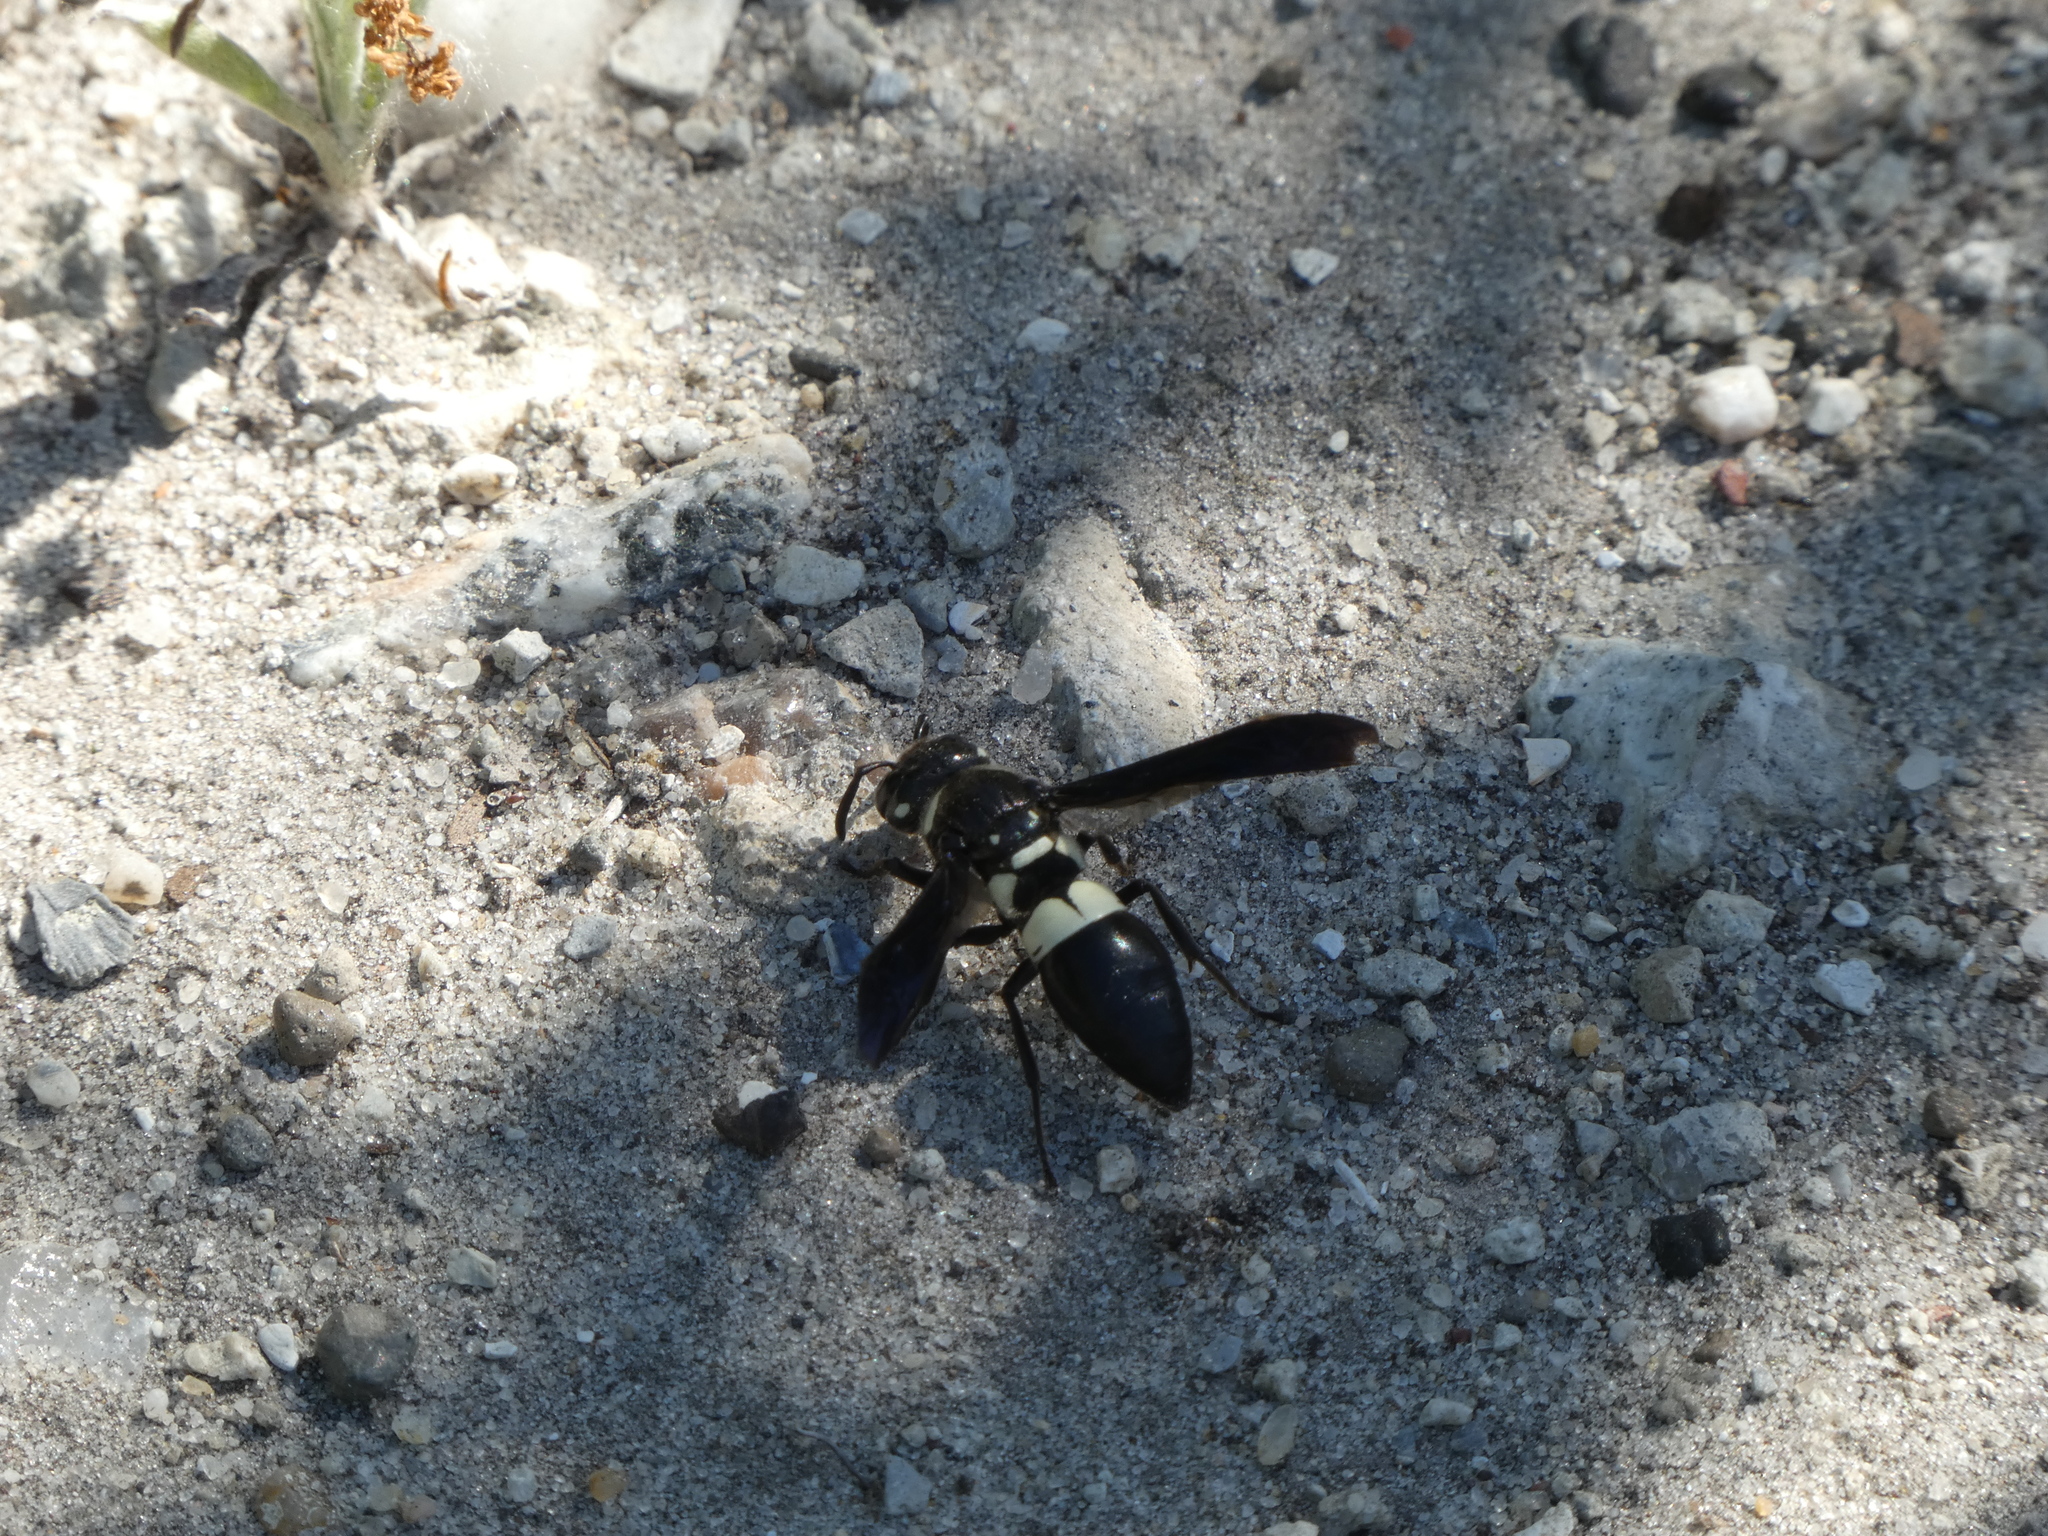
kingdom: Animalia
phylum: Arthropoda
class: Insecta
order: Hymenoptera
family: Eumenidae
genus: Euodynerus
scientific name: Euodynerus bidens
